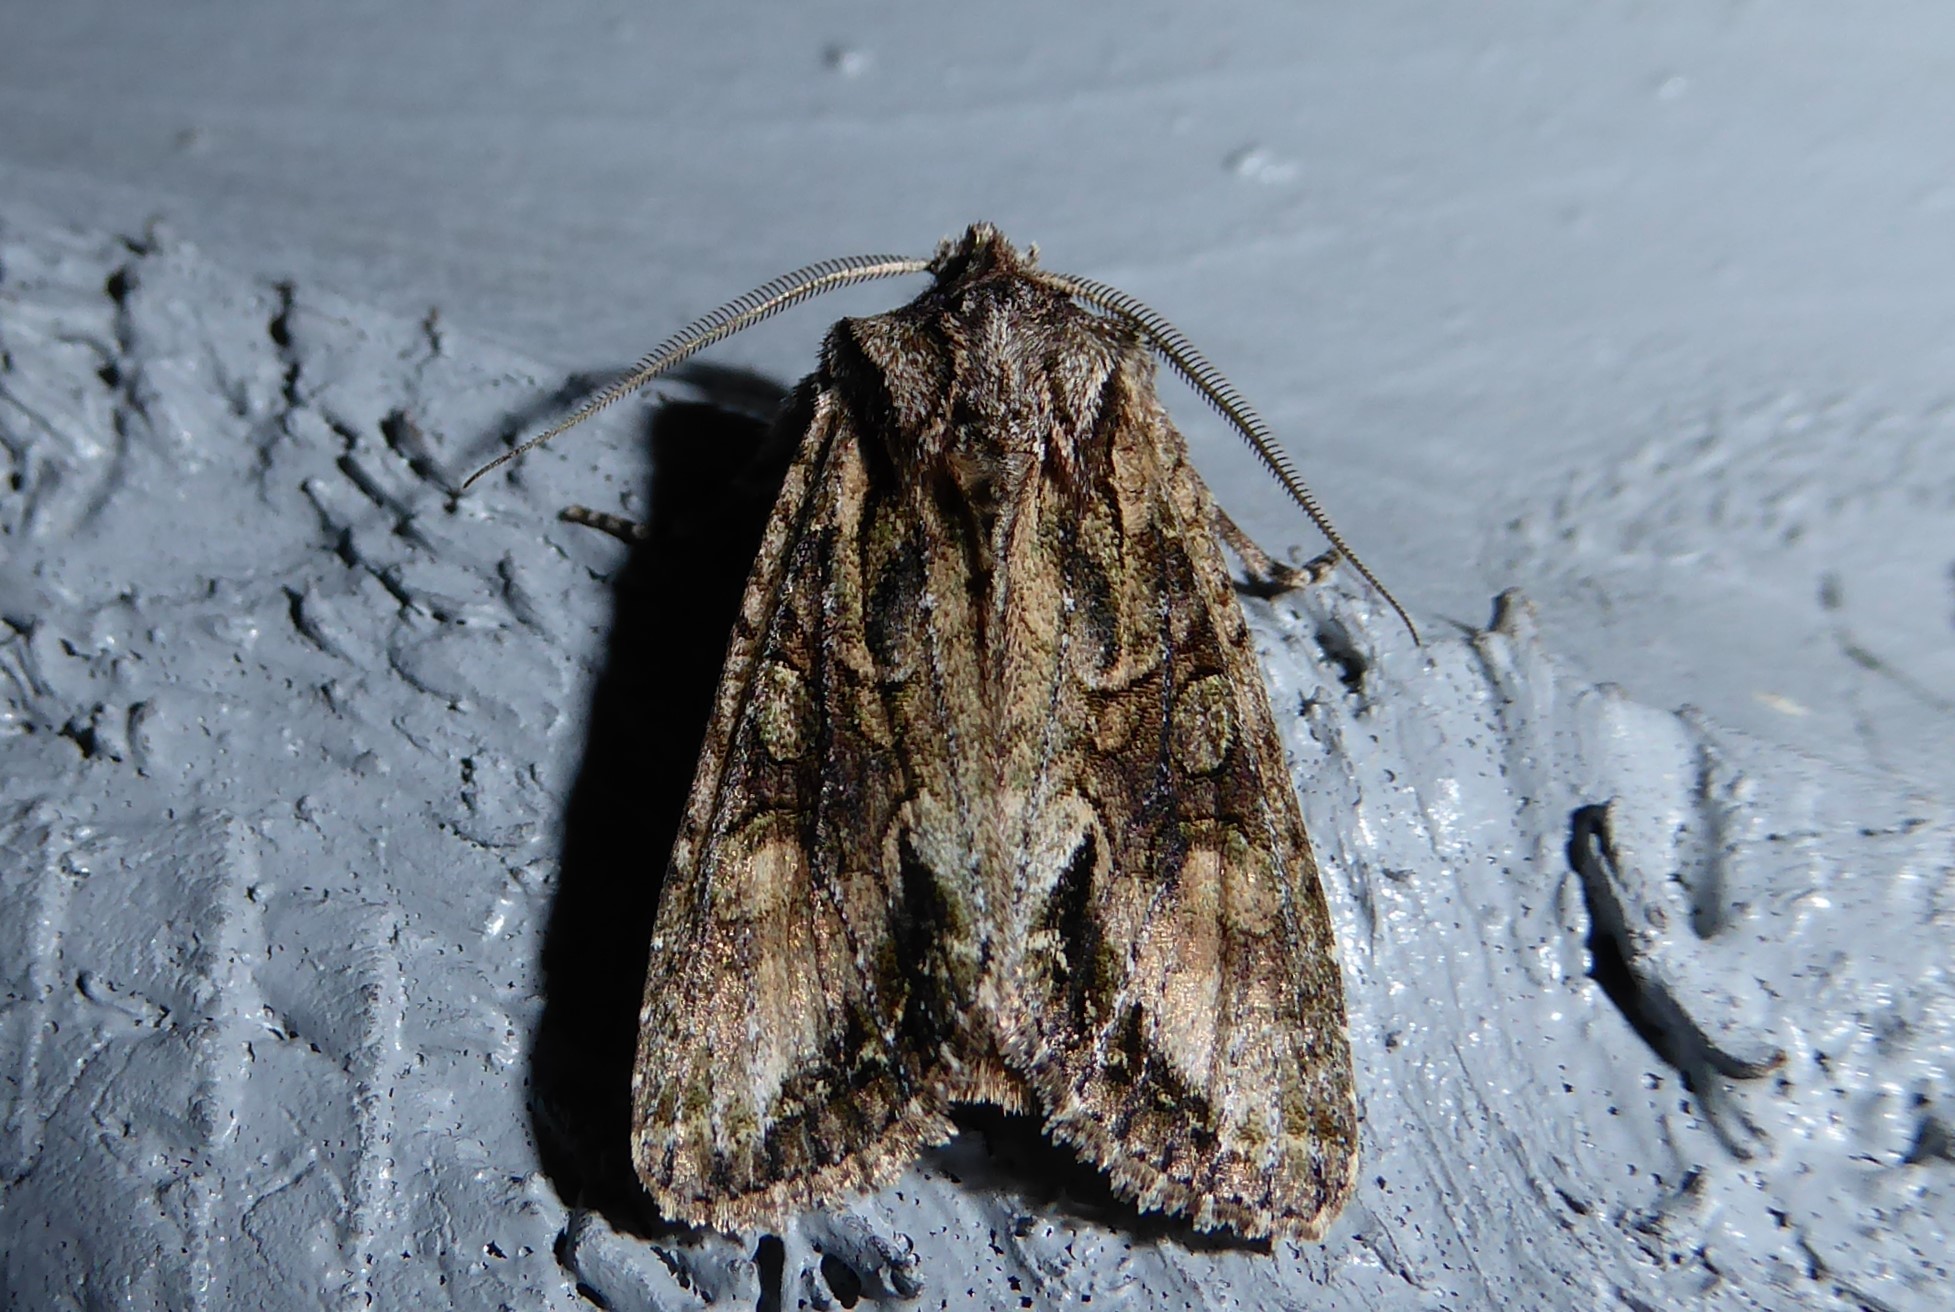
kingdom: Animalia
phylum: Arthropoda
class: Insecta
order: Lepidoptera
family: Noctuidae
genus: Ichneutica
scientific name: Ichneutica mutans
